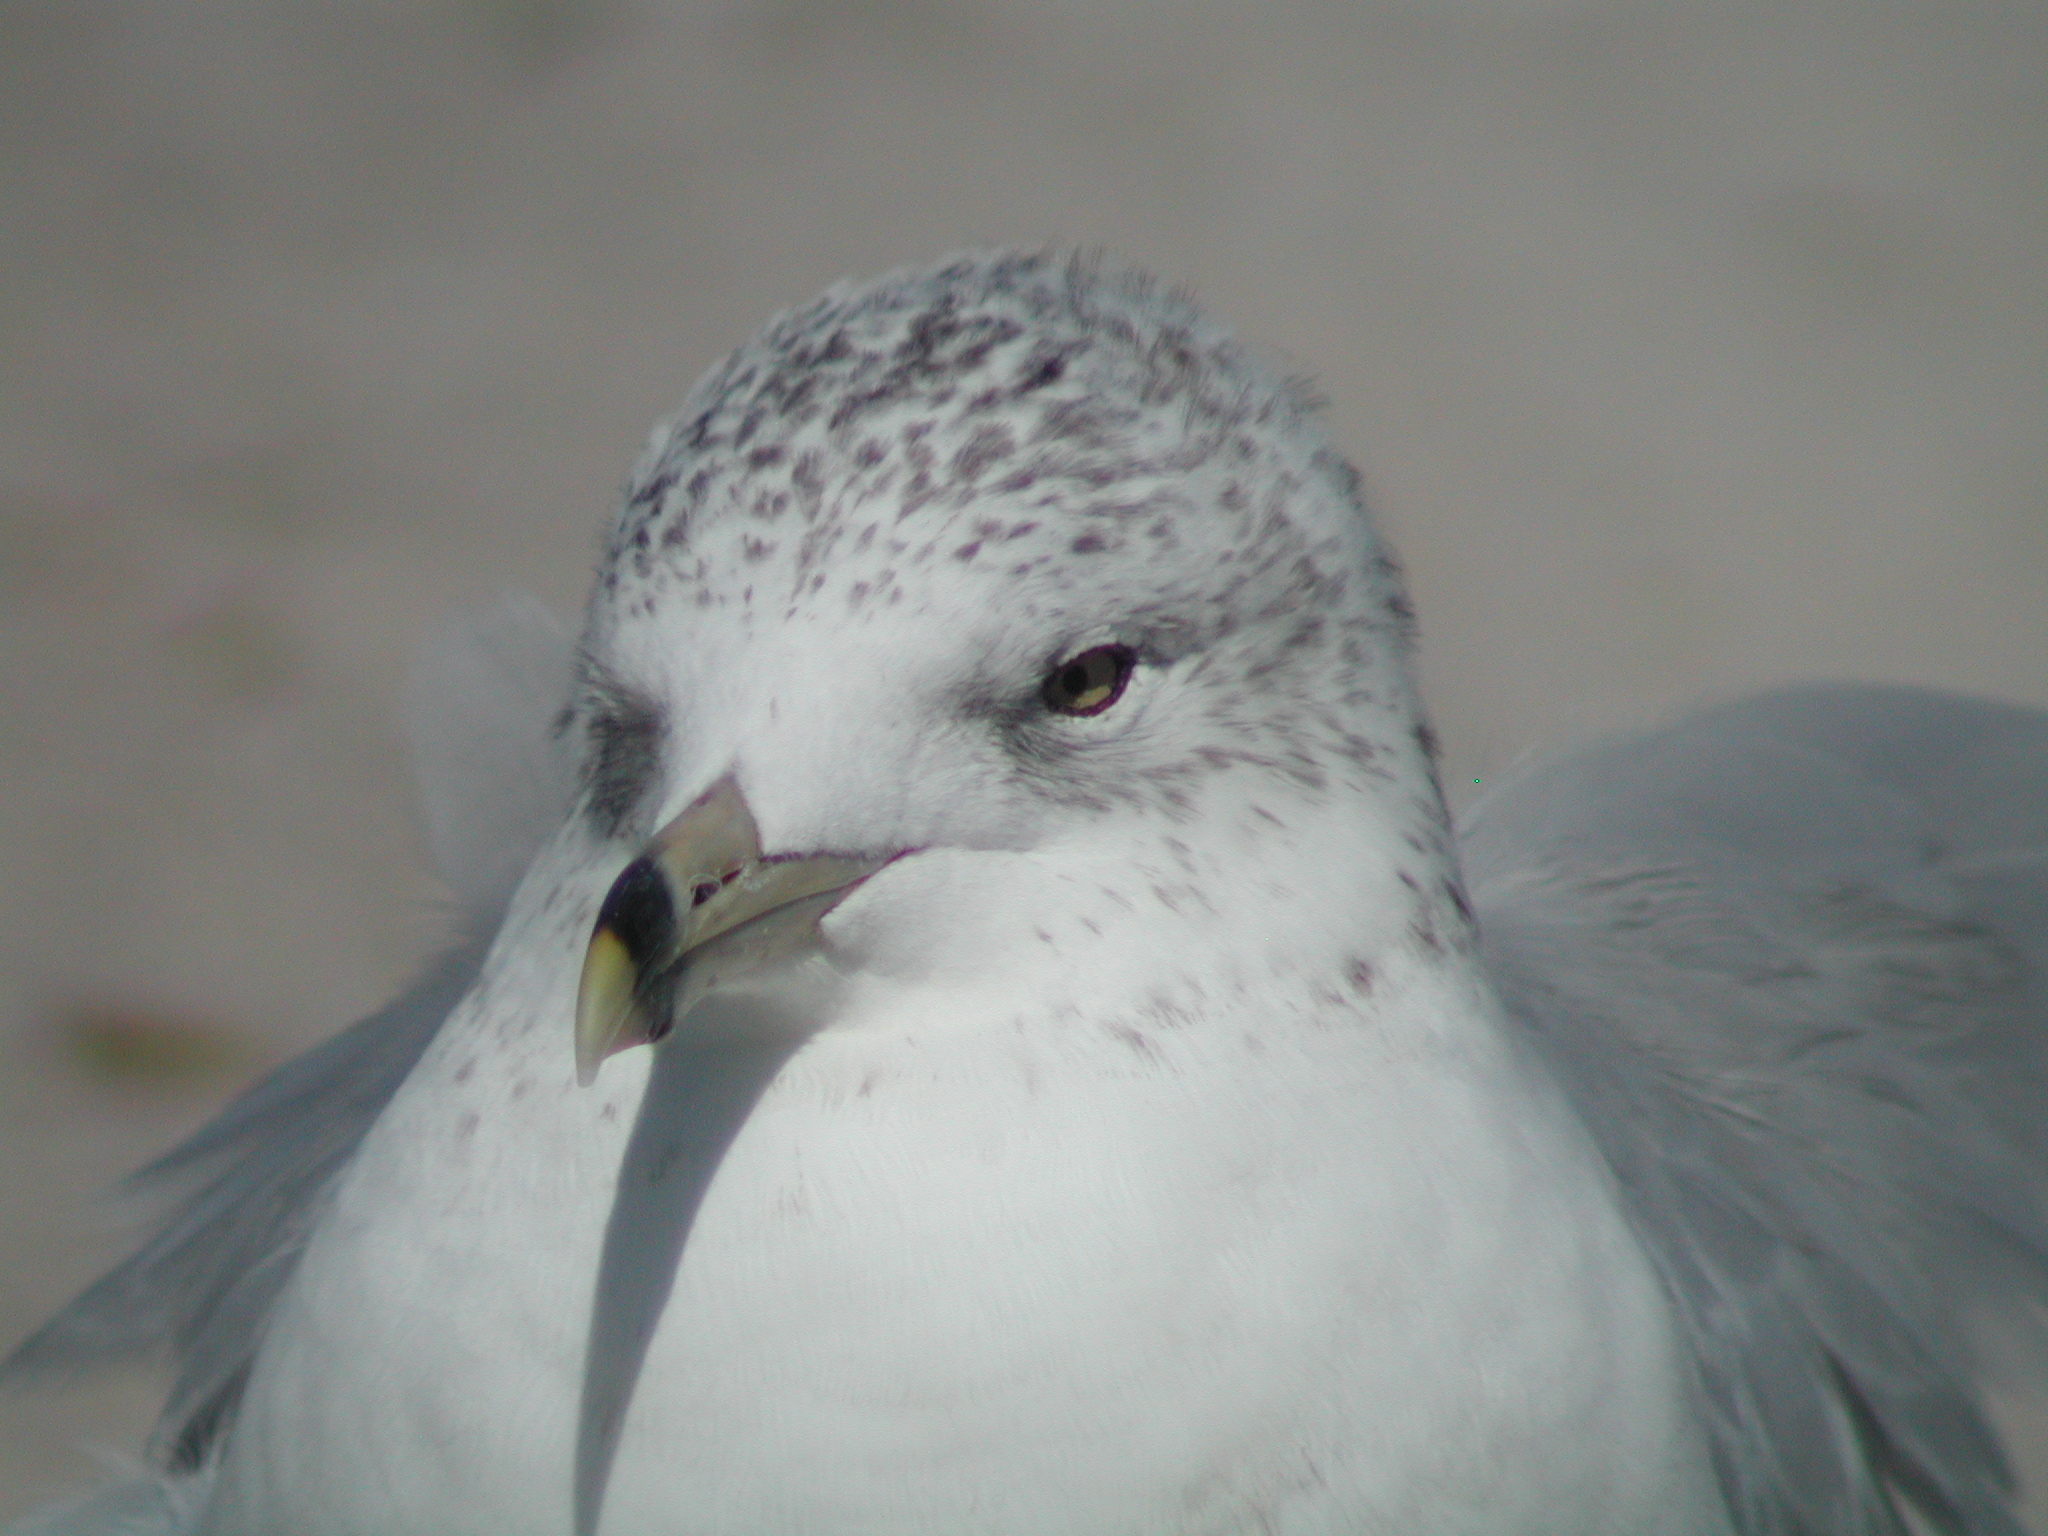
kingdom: Animalia
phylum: Chordata
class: Aves
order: Charadriiformes
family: Laridae
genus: Larus
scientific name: Larus delawarensis
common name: Ring-billed gull
